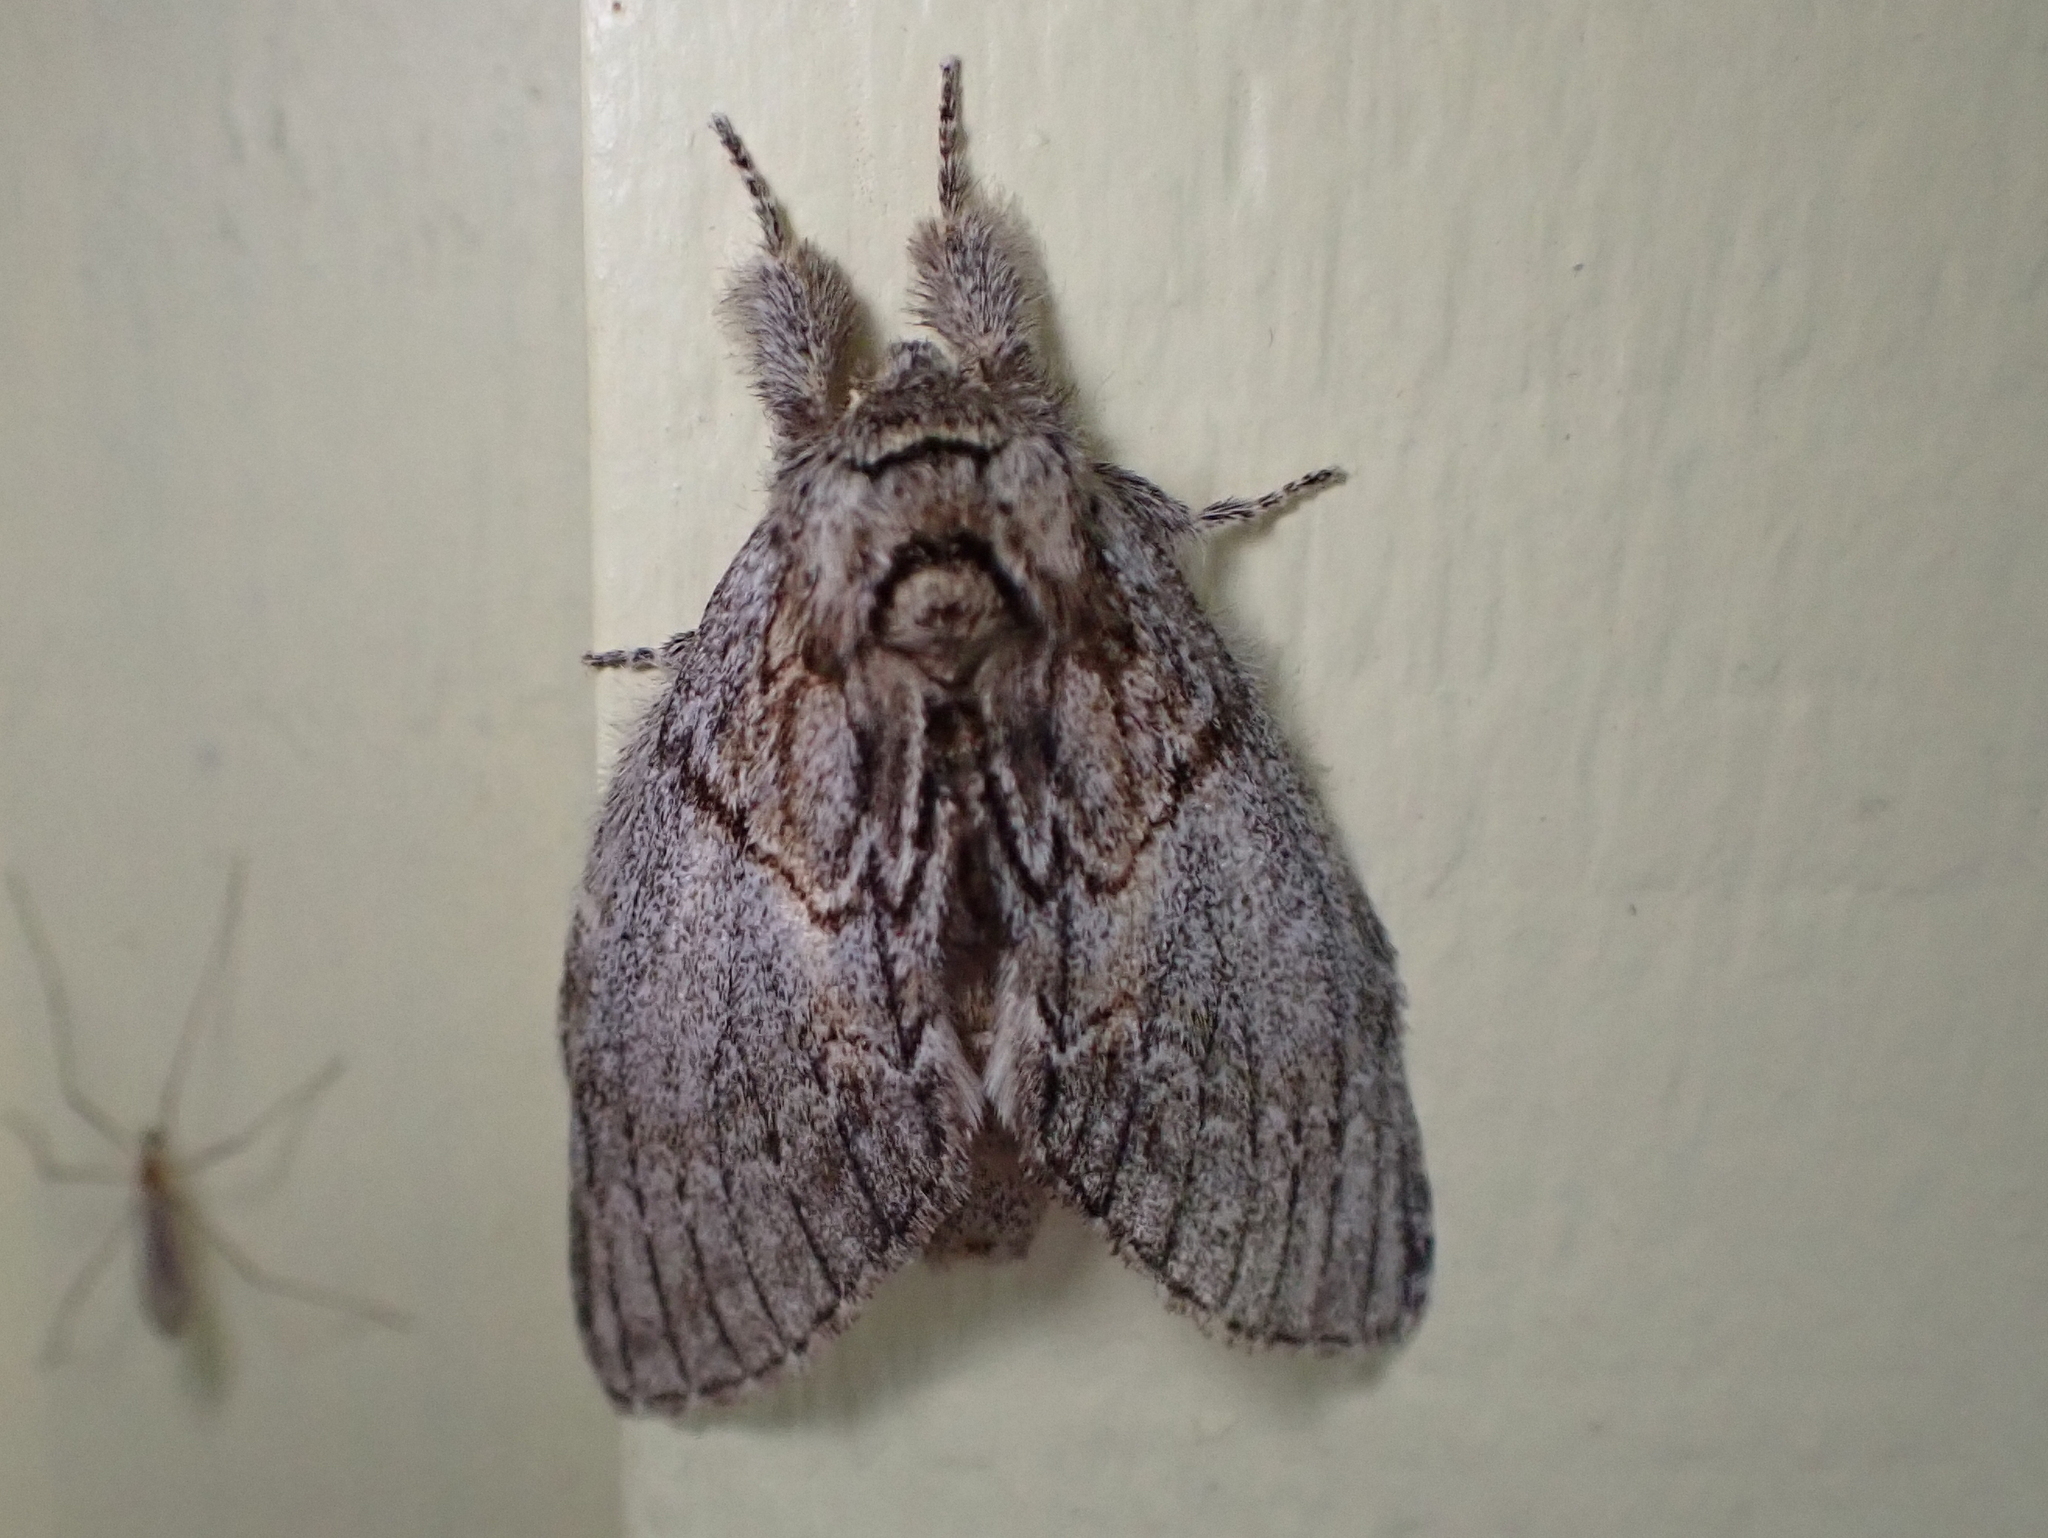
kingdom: Animalia
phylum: Arthropoda
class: Insecta
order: Lepidoptera
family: Notodontidae
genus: Peridea
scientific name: Peridea basitriens
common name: Oval-based prominent
